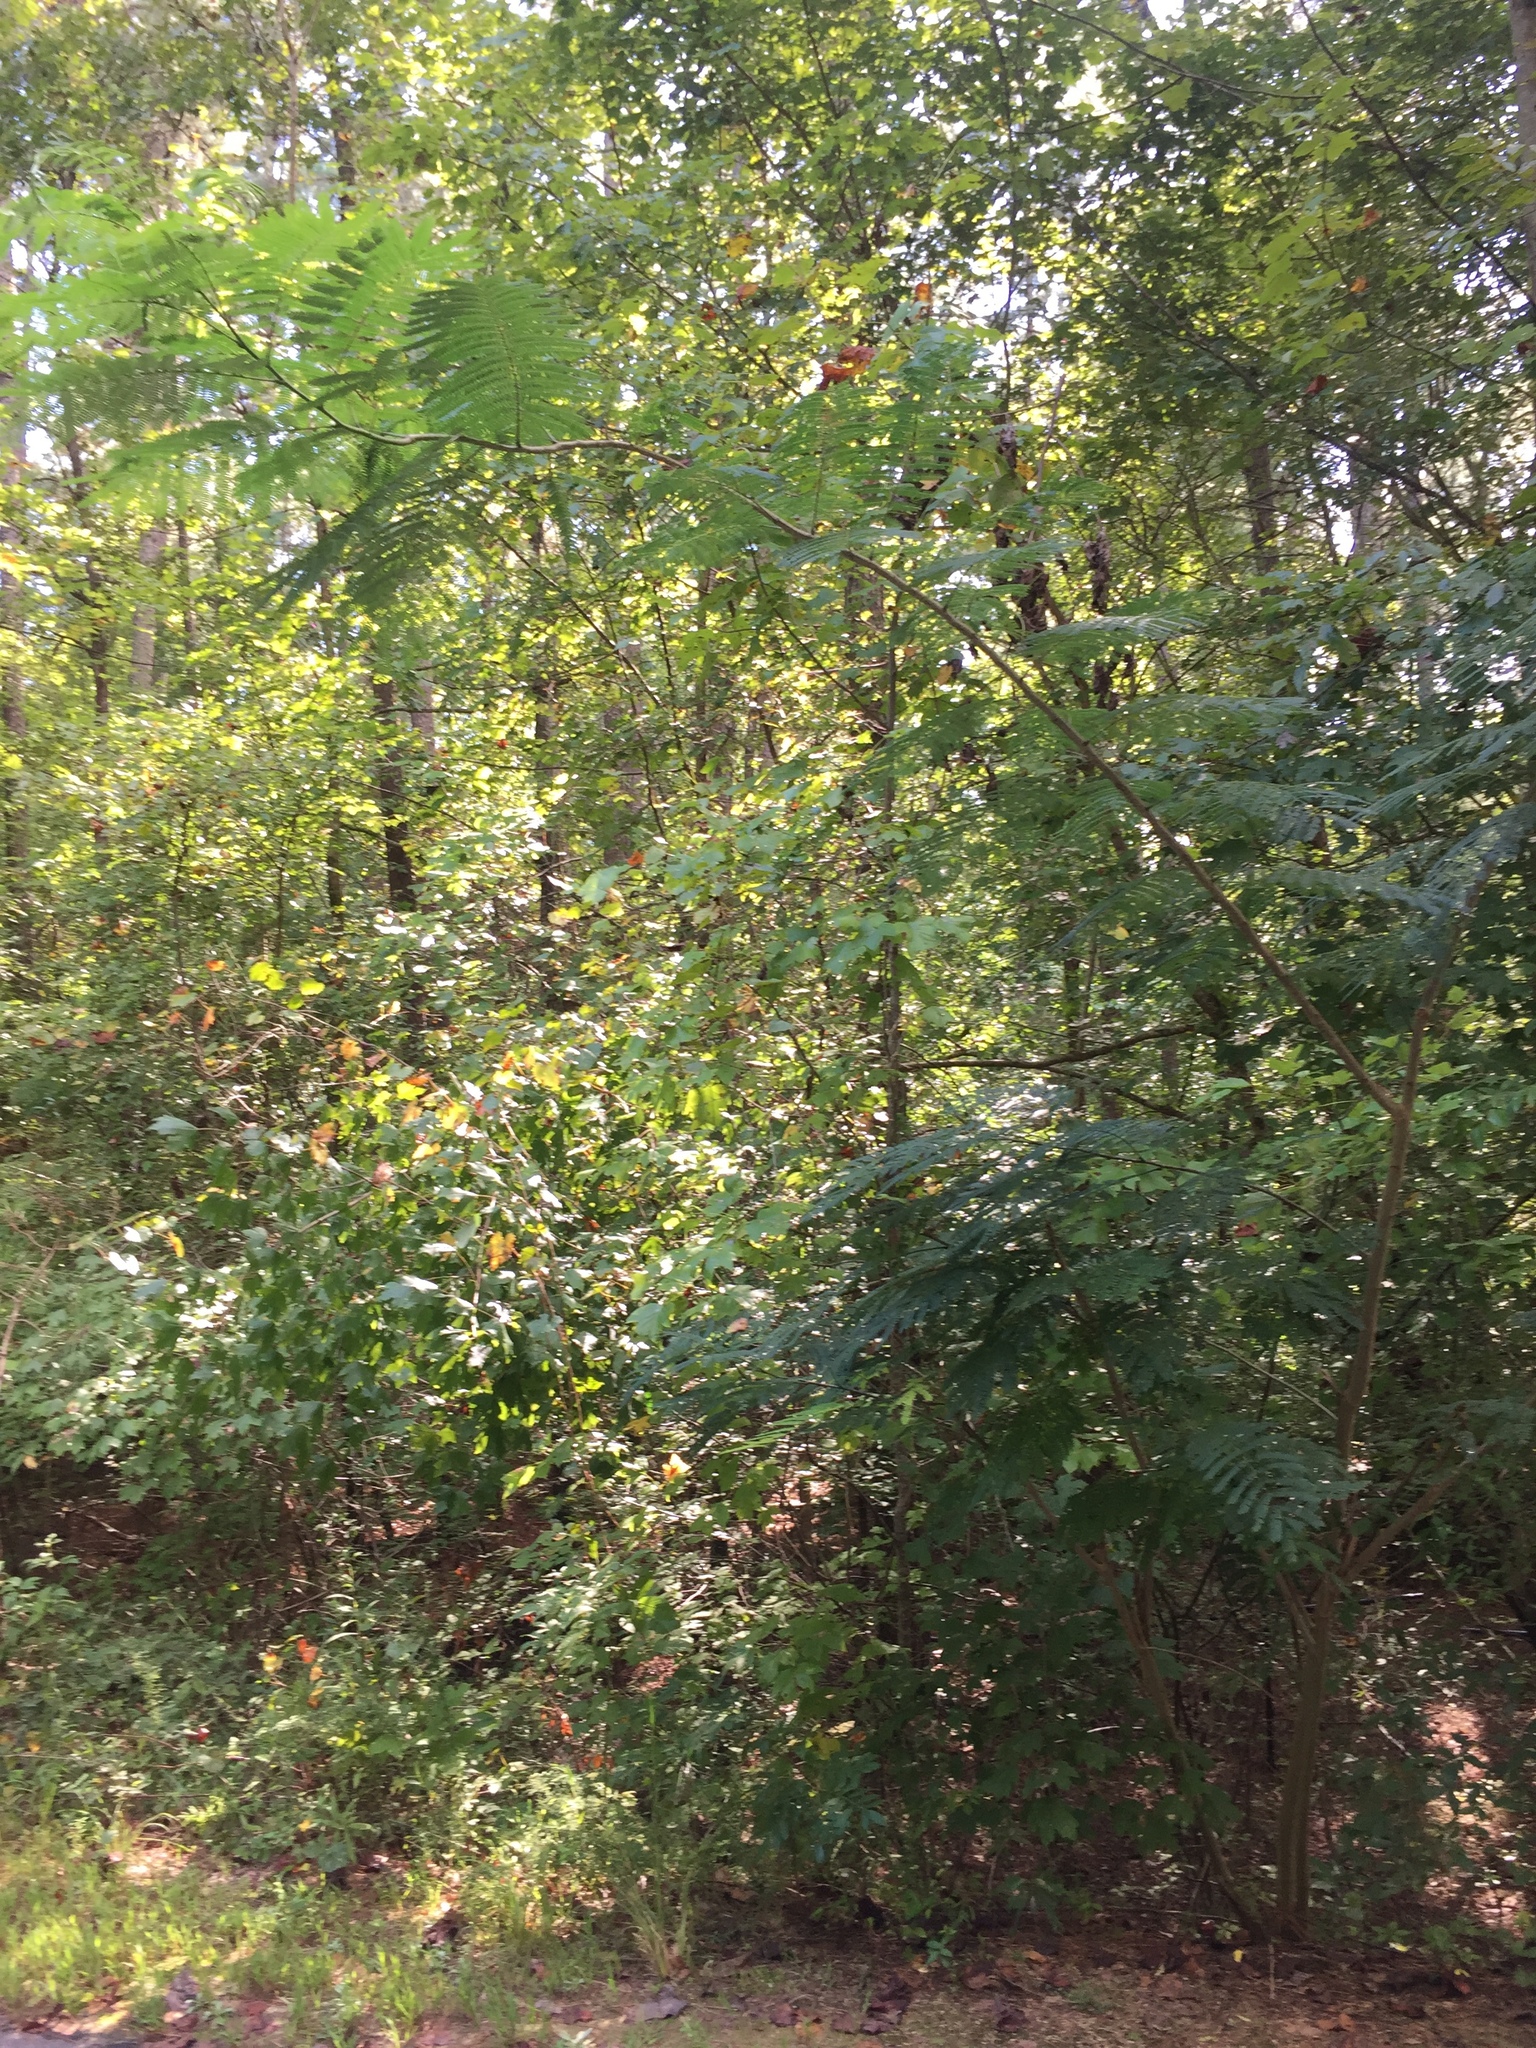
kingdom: Plantae
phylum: Tracheophyta
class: Magnoliopsida
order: Fabales
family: Fabaceae
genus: Albizia
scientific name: Albizia julibrissin
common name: Silktree
